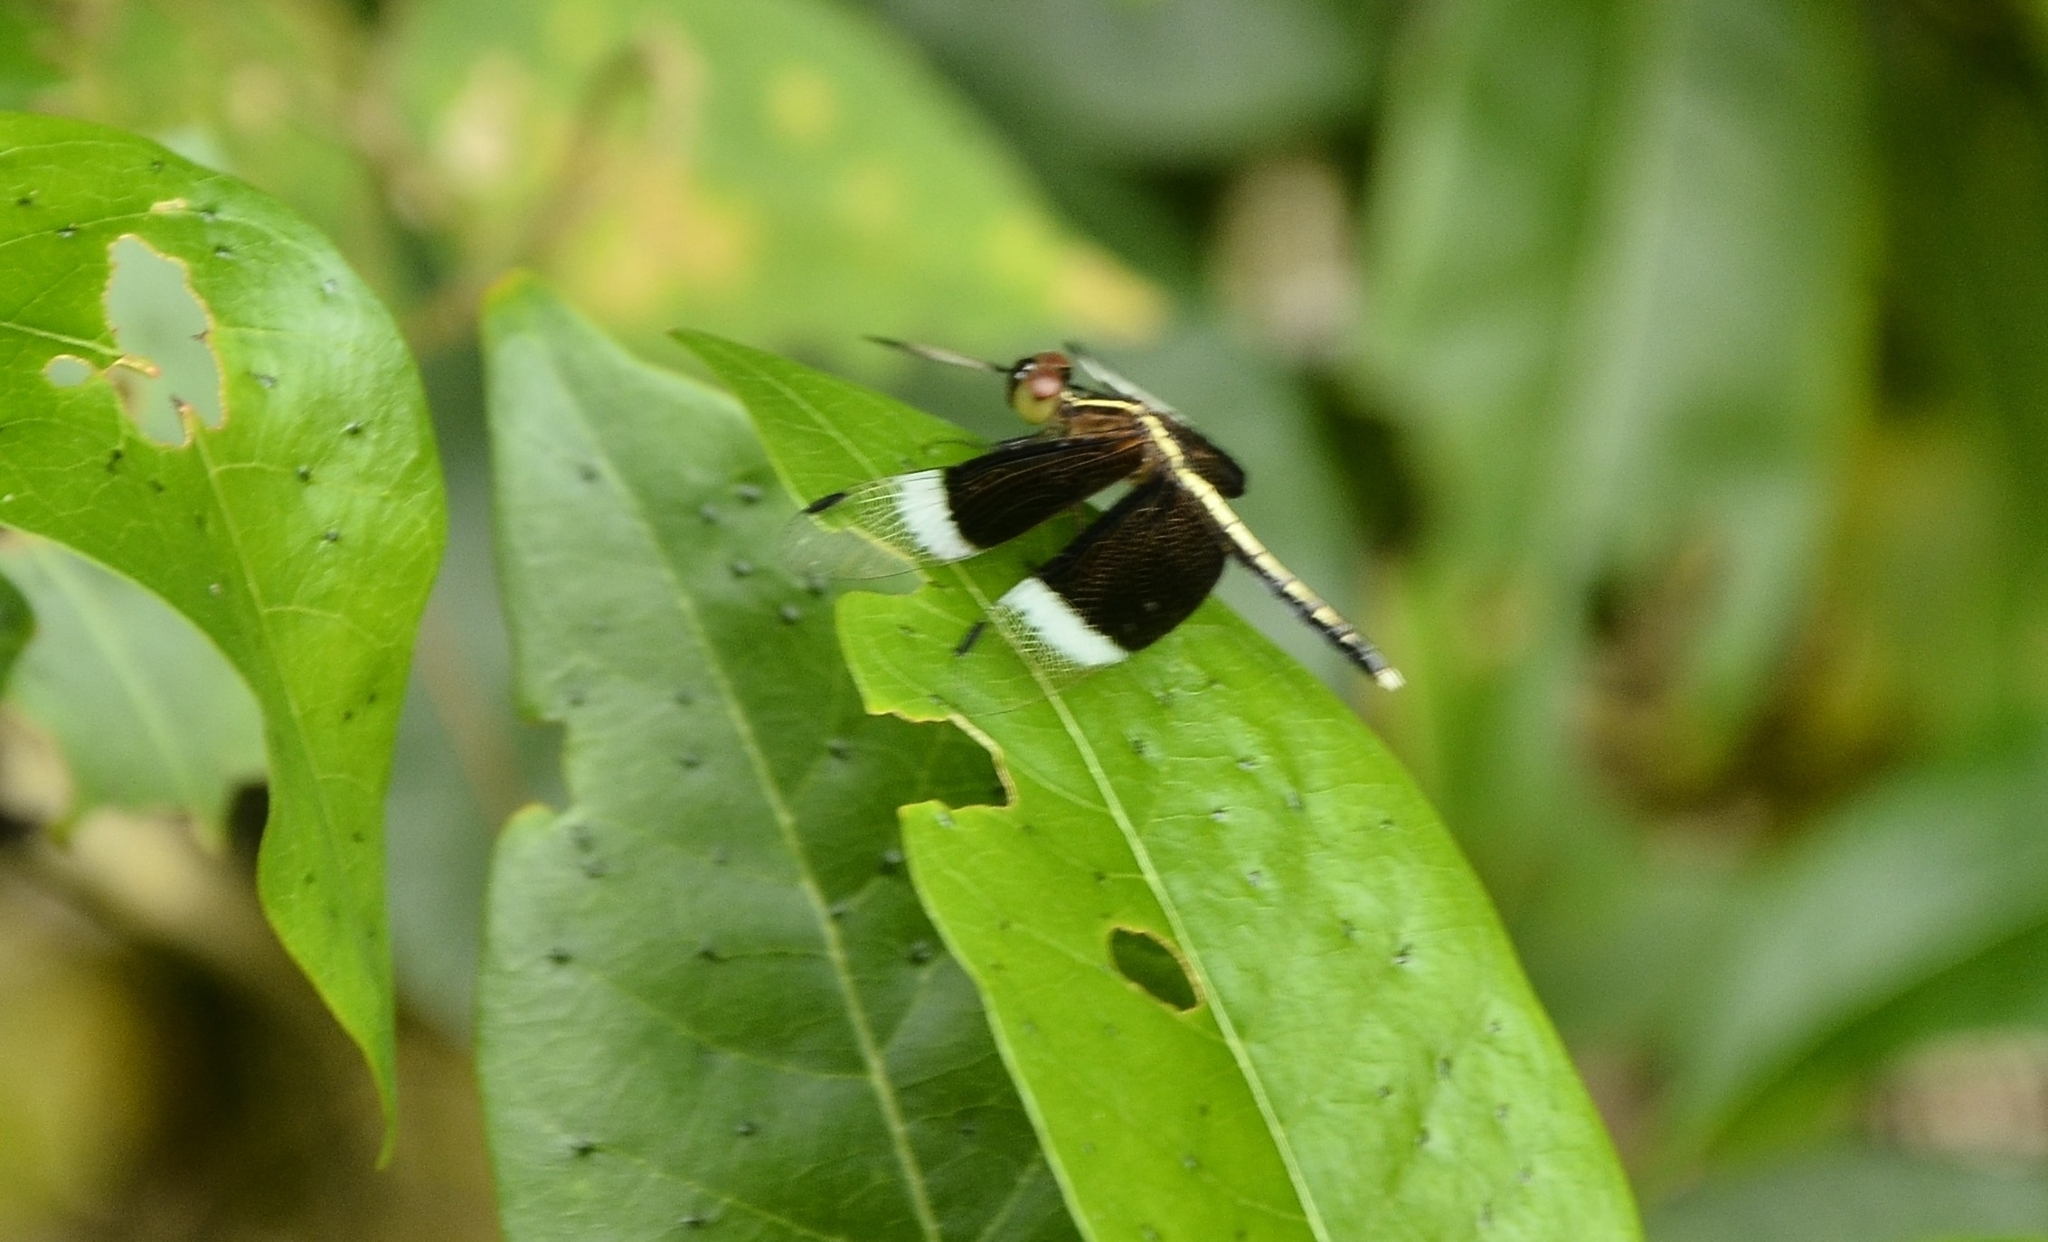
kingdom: Animalia
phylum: Arthropoda
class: Insecta
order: Odonata
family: Libellulidae
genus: Neurothemis
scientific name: Neurothemis tullia
